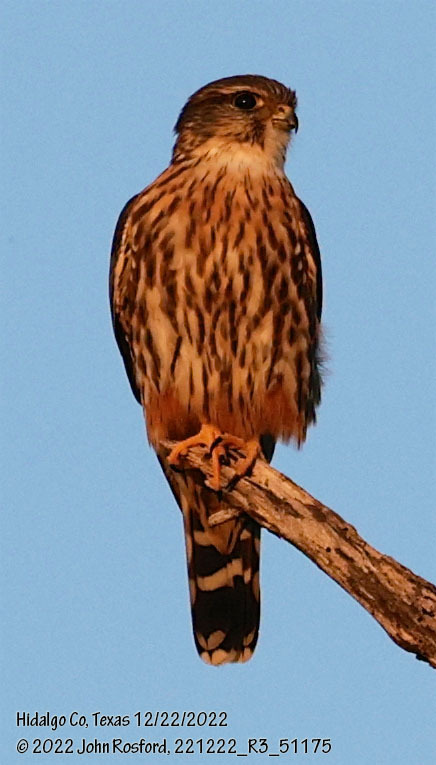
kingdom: Animalia
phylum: Chordata
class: Aves
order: Falconiformes
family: Falconidae
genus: Falco
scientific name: Falco columbarius
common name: Merlin
